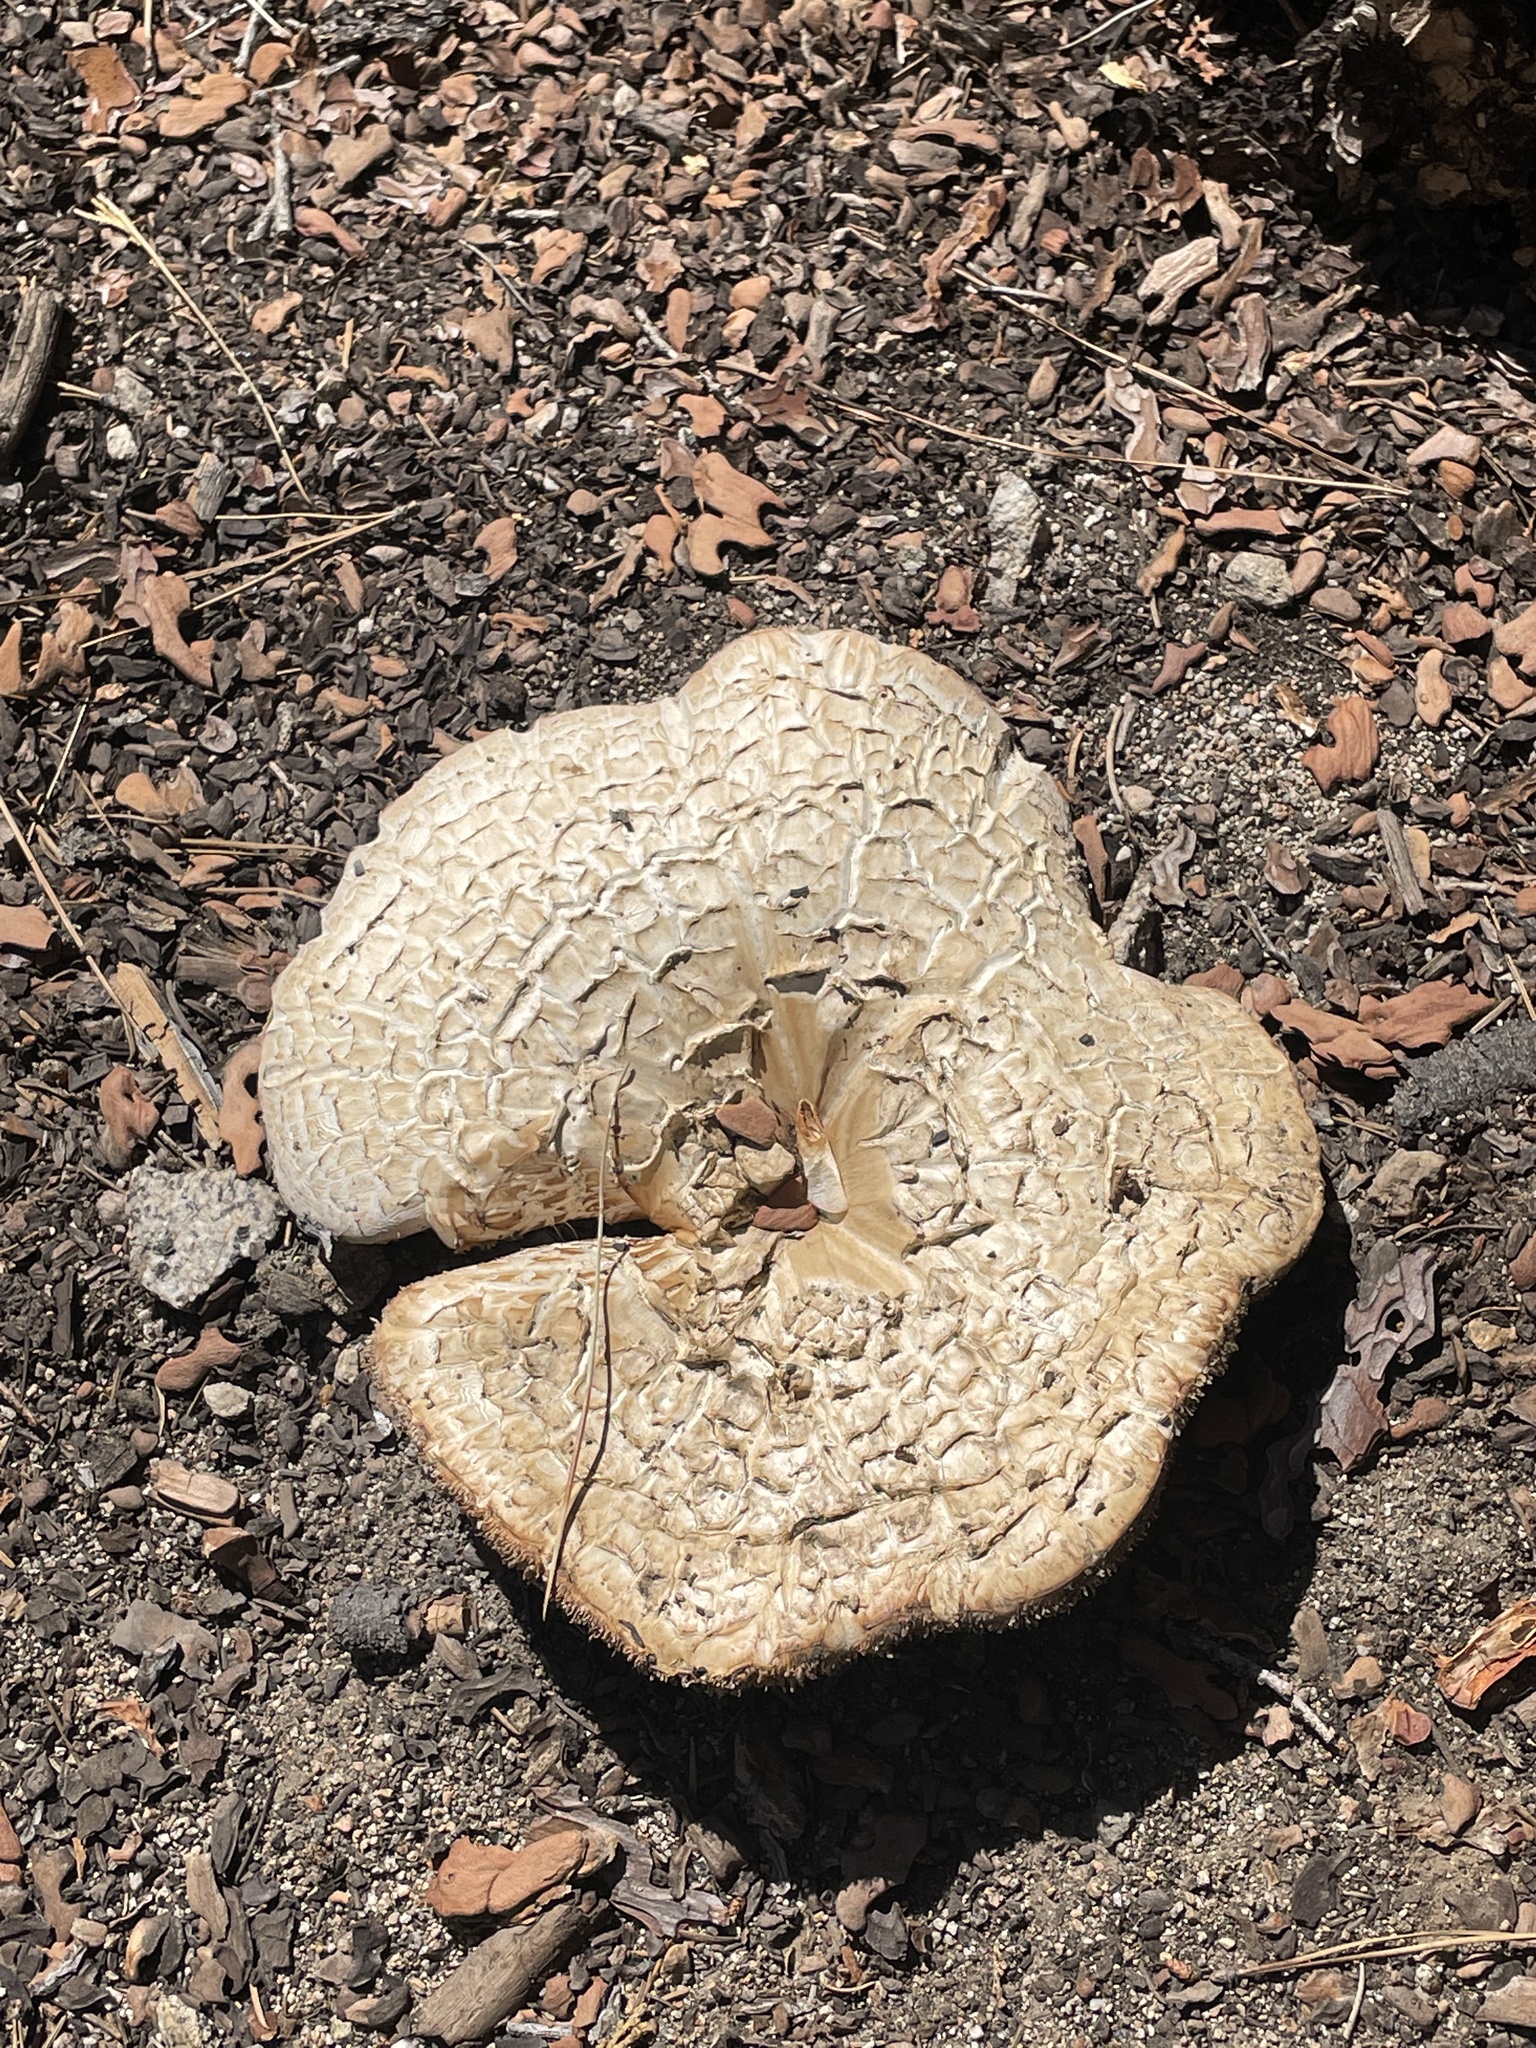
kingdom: Fungi
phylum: Basidiomycota
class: Agaricomycetes
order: Gloeophyllales
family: Gloeophyllaceae
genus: Neolentinus
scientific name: Neolentinus ponderosus
